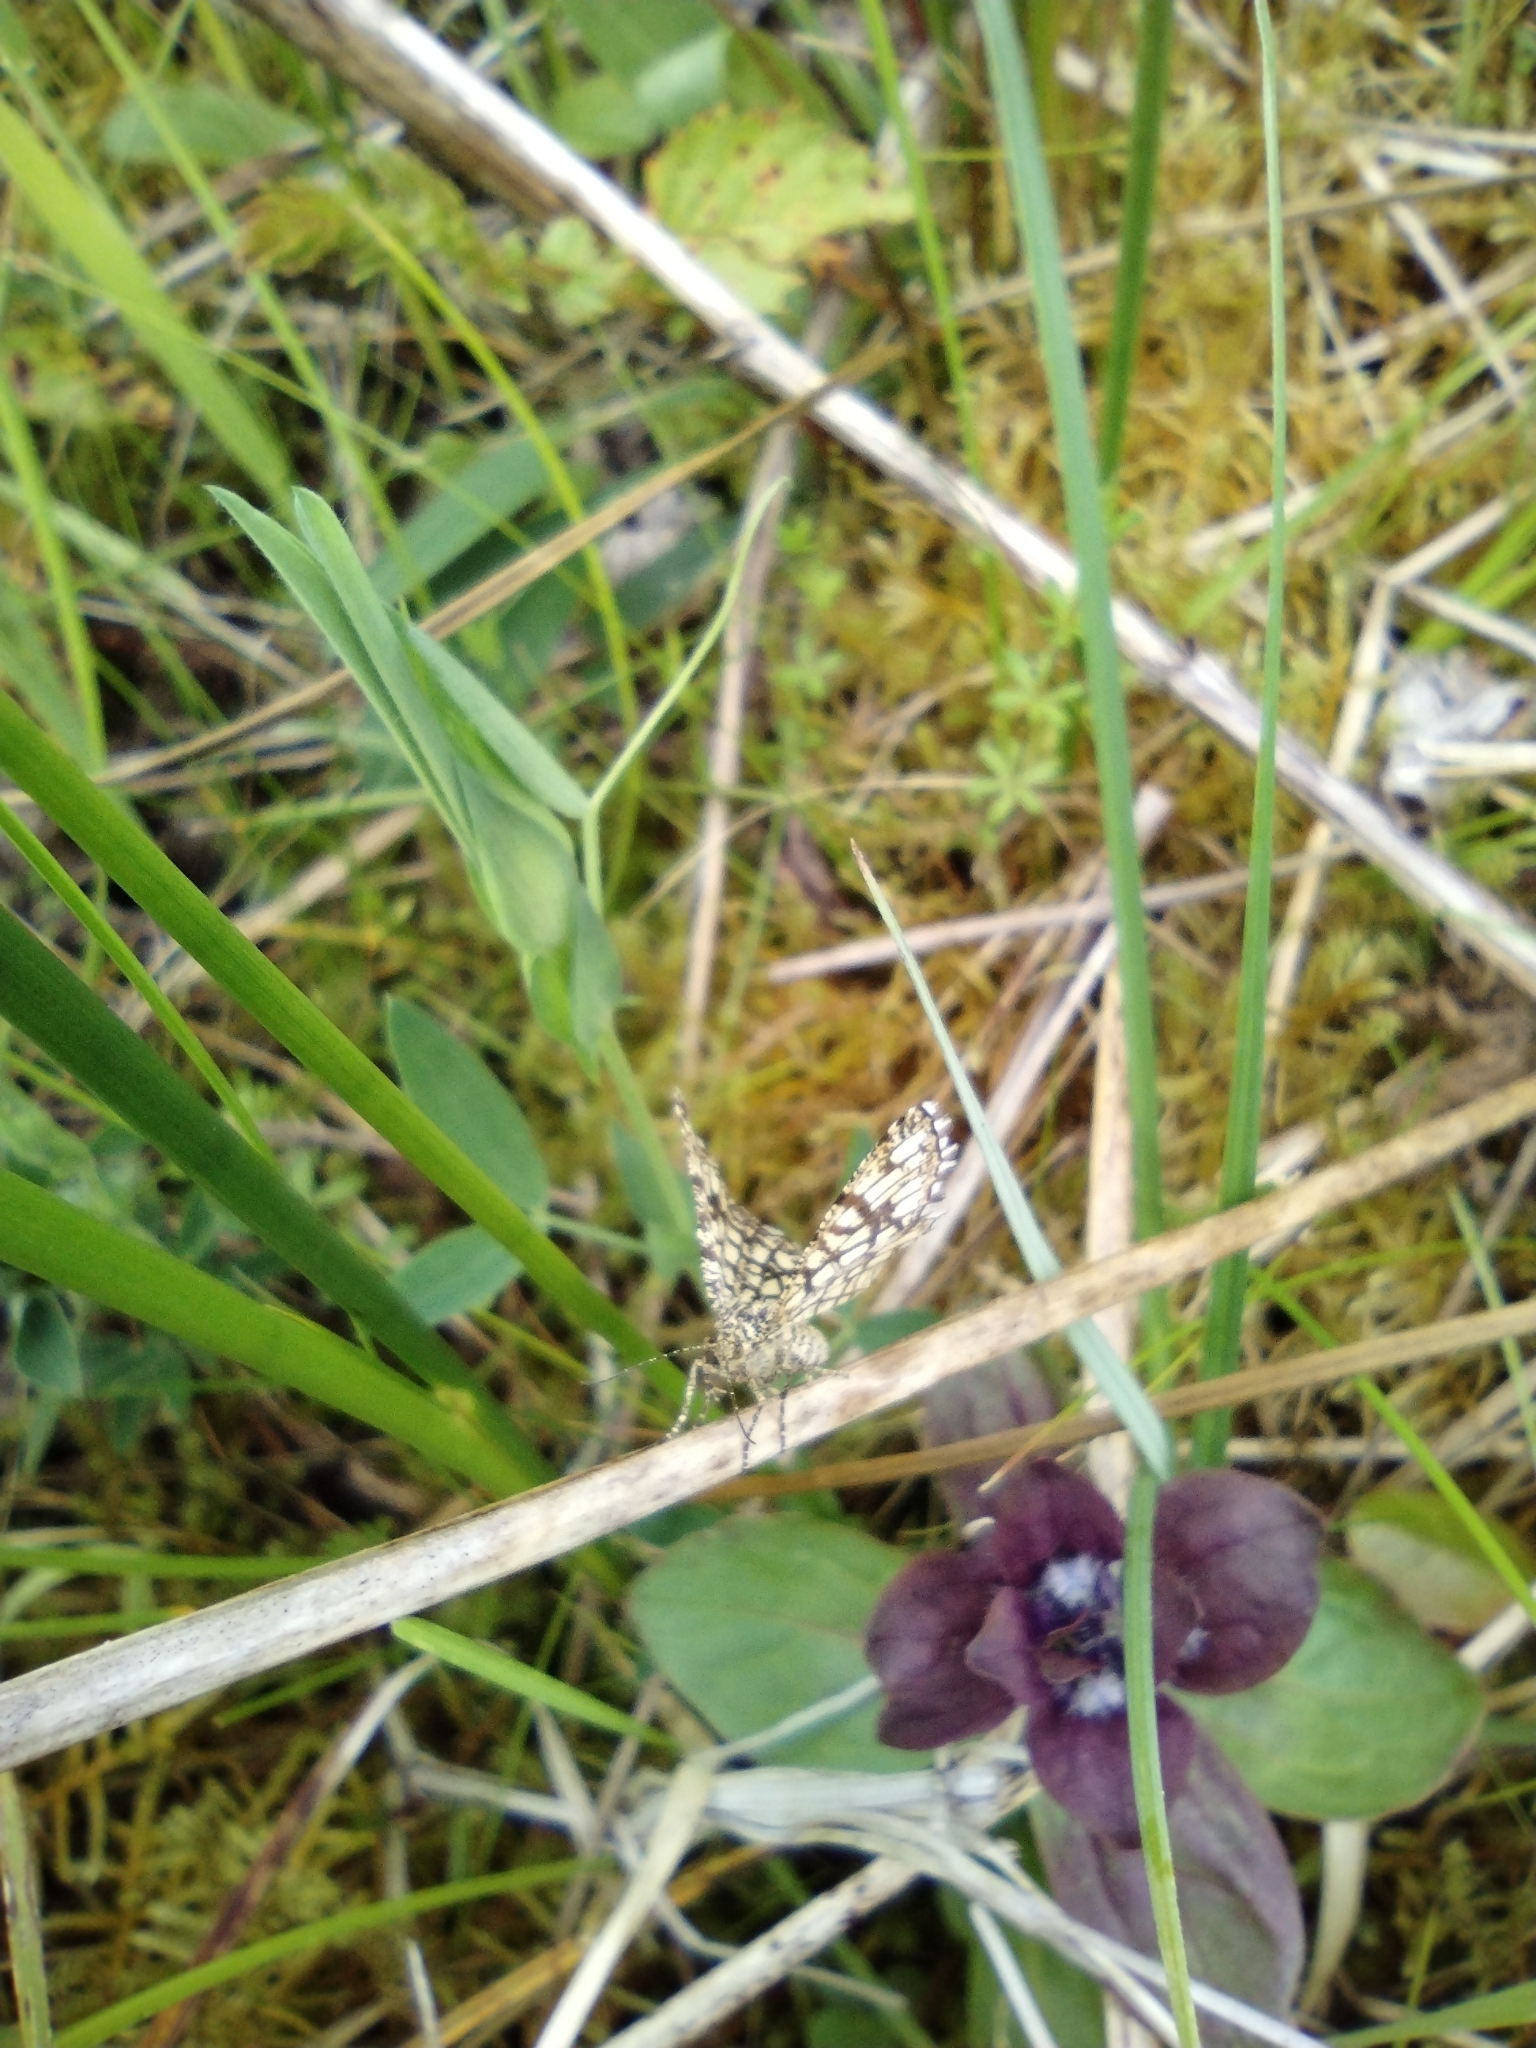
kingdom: Animalia
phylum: Arthropoda
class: Insecta
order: Lepidoptera
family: Geometridae
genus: Chiasmia
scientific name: Chiasmia clathrata
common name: Latticed heath
